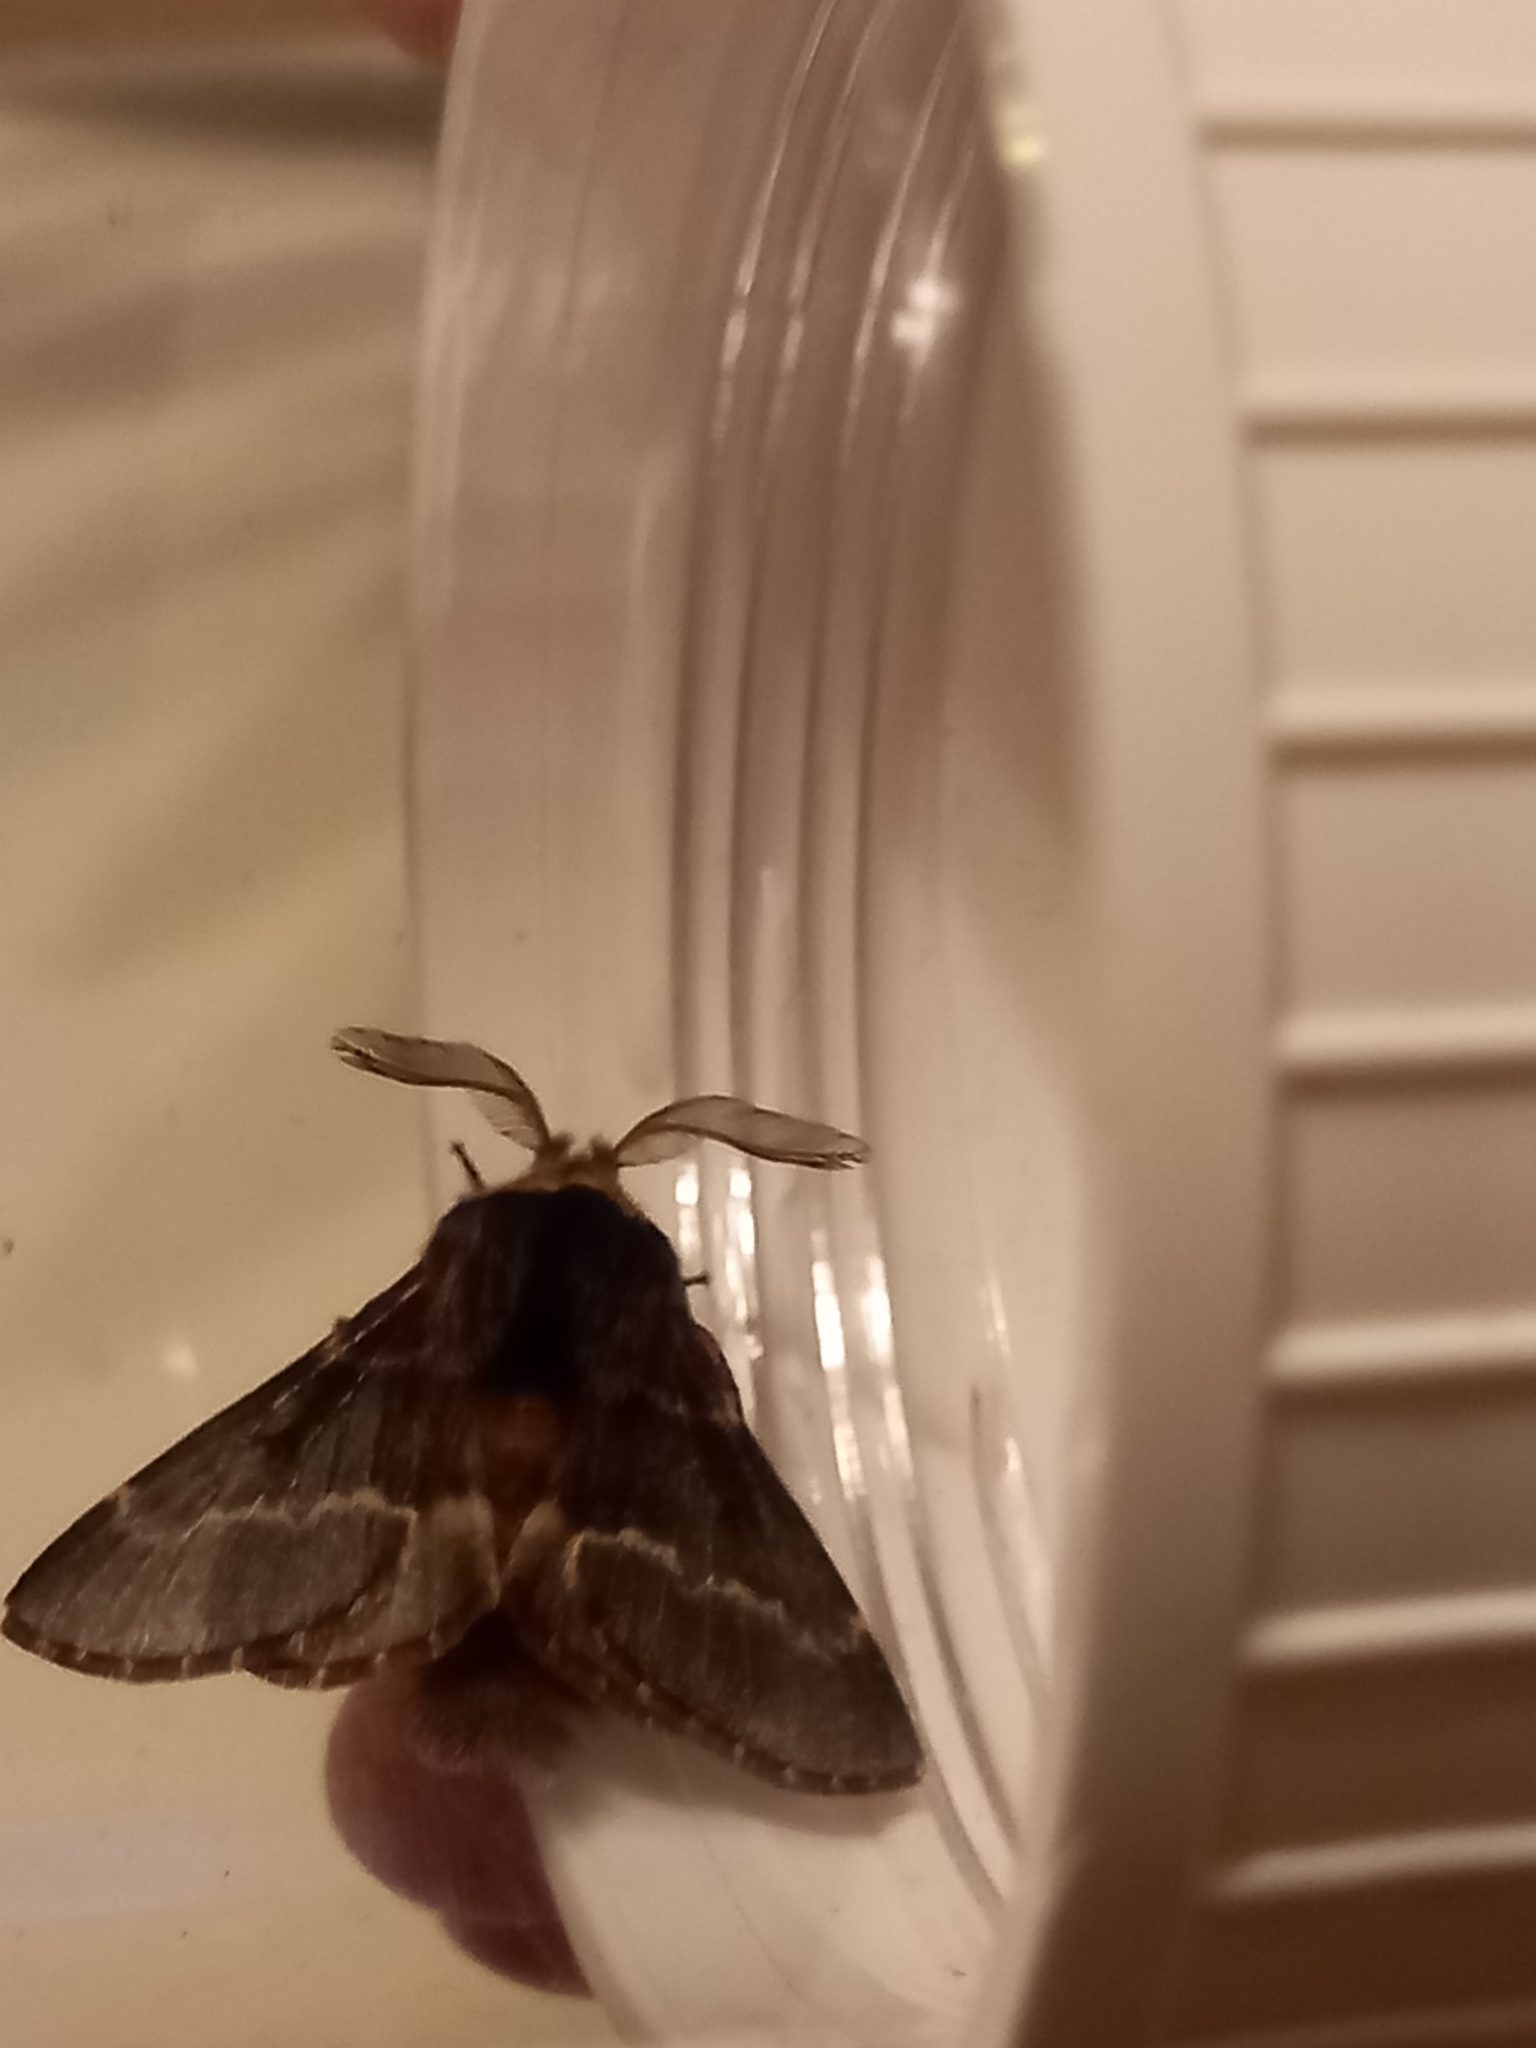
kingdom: Animalia
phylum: Arthropoda
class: Insecta
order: Lepidoptera
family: Lasiocampidae
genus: Poecilocampa
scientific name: Poecilocampa populi
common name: December moth
